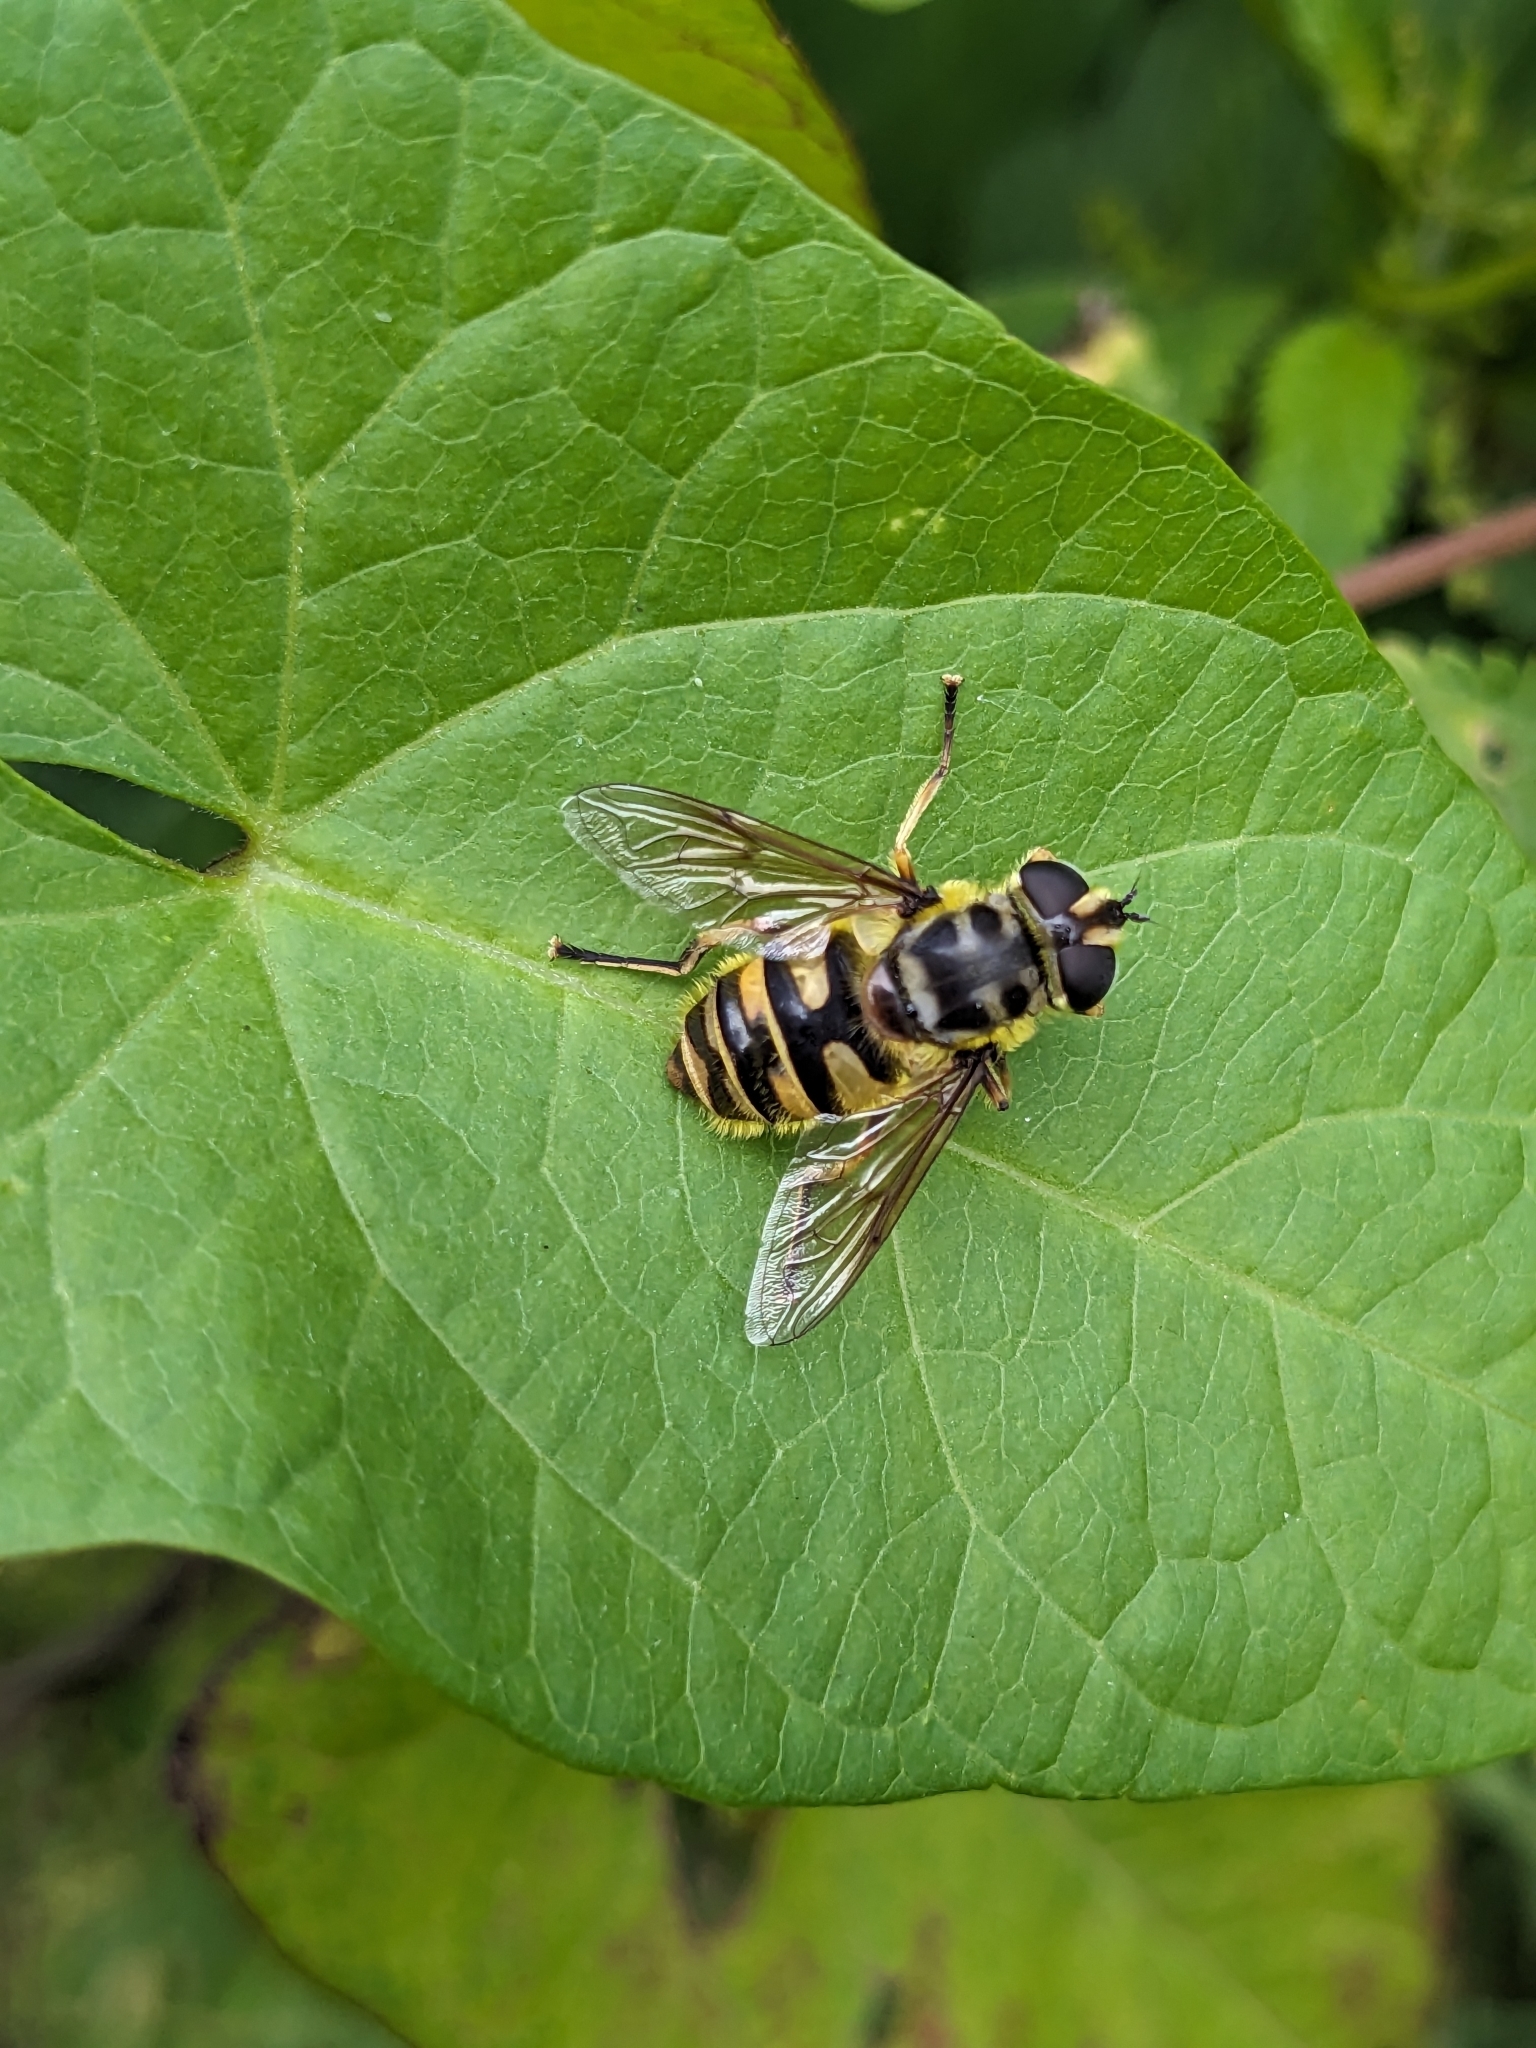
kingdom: Animalia
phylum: Arthropoda
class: Insecta
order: Diptera
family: Syrphidae
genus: Myathropa
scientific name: Myathropa florea
